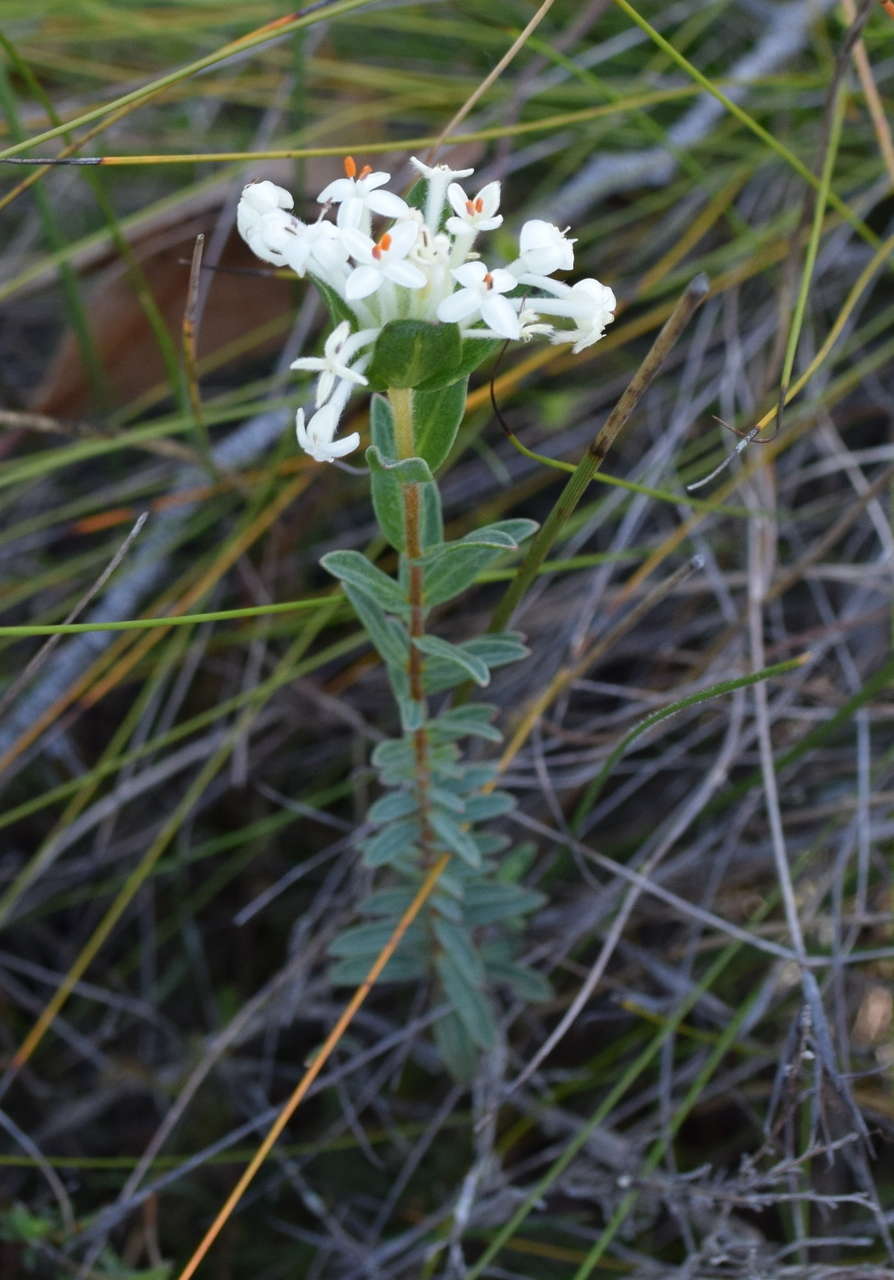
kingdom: Plantae
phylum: Tracheophyta
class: Magnoliopsida
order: Malvales
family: Thymelaeaceae
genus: Pimelea
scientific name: Pimelea humilis
